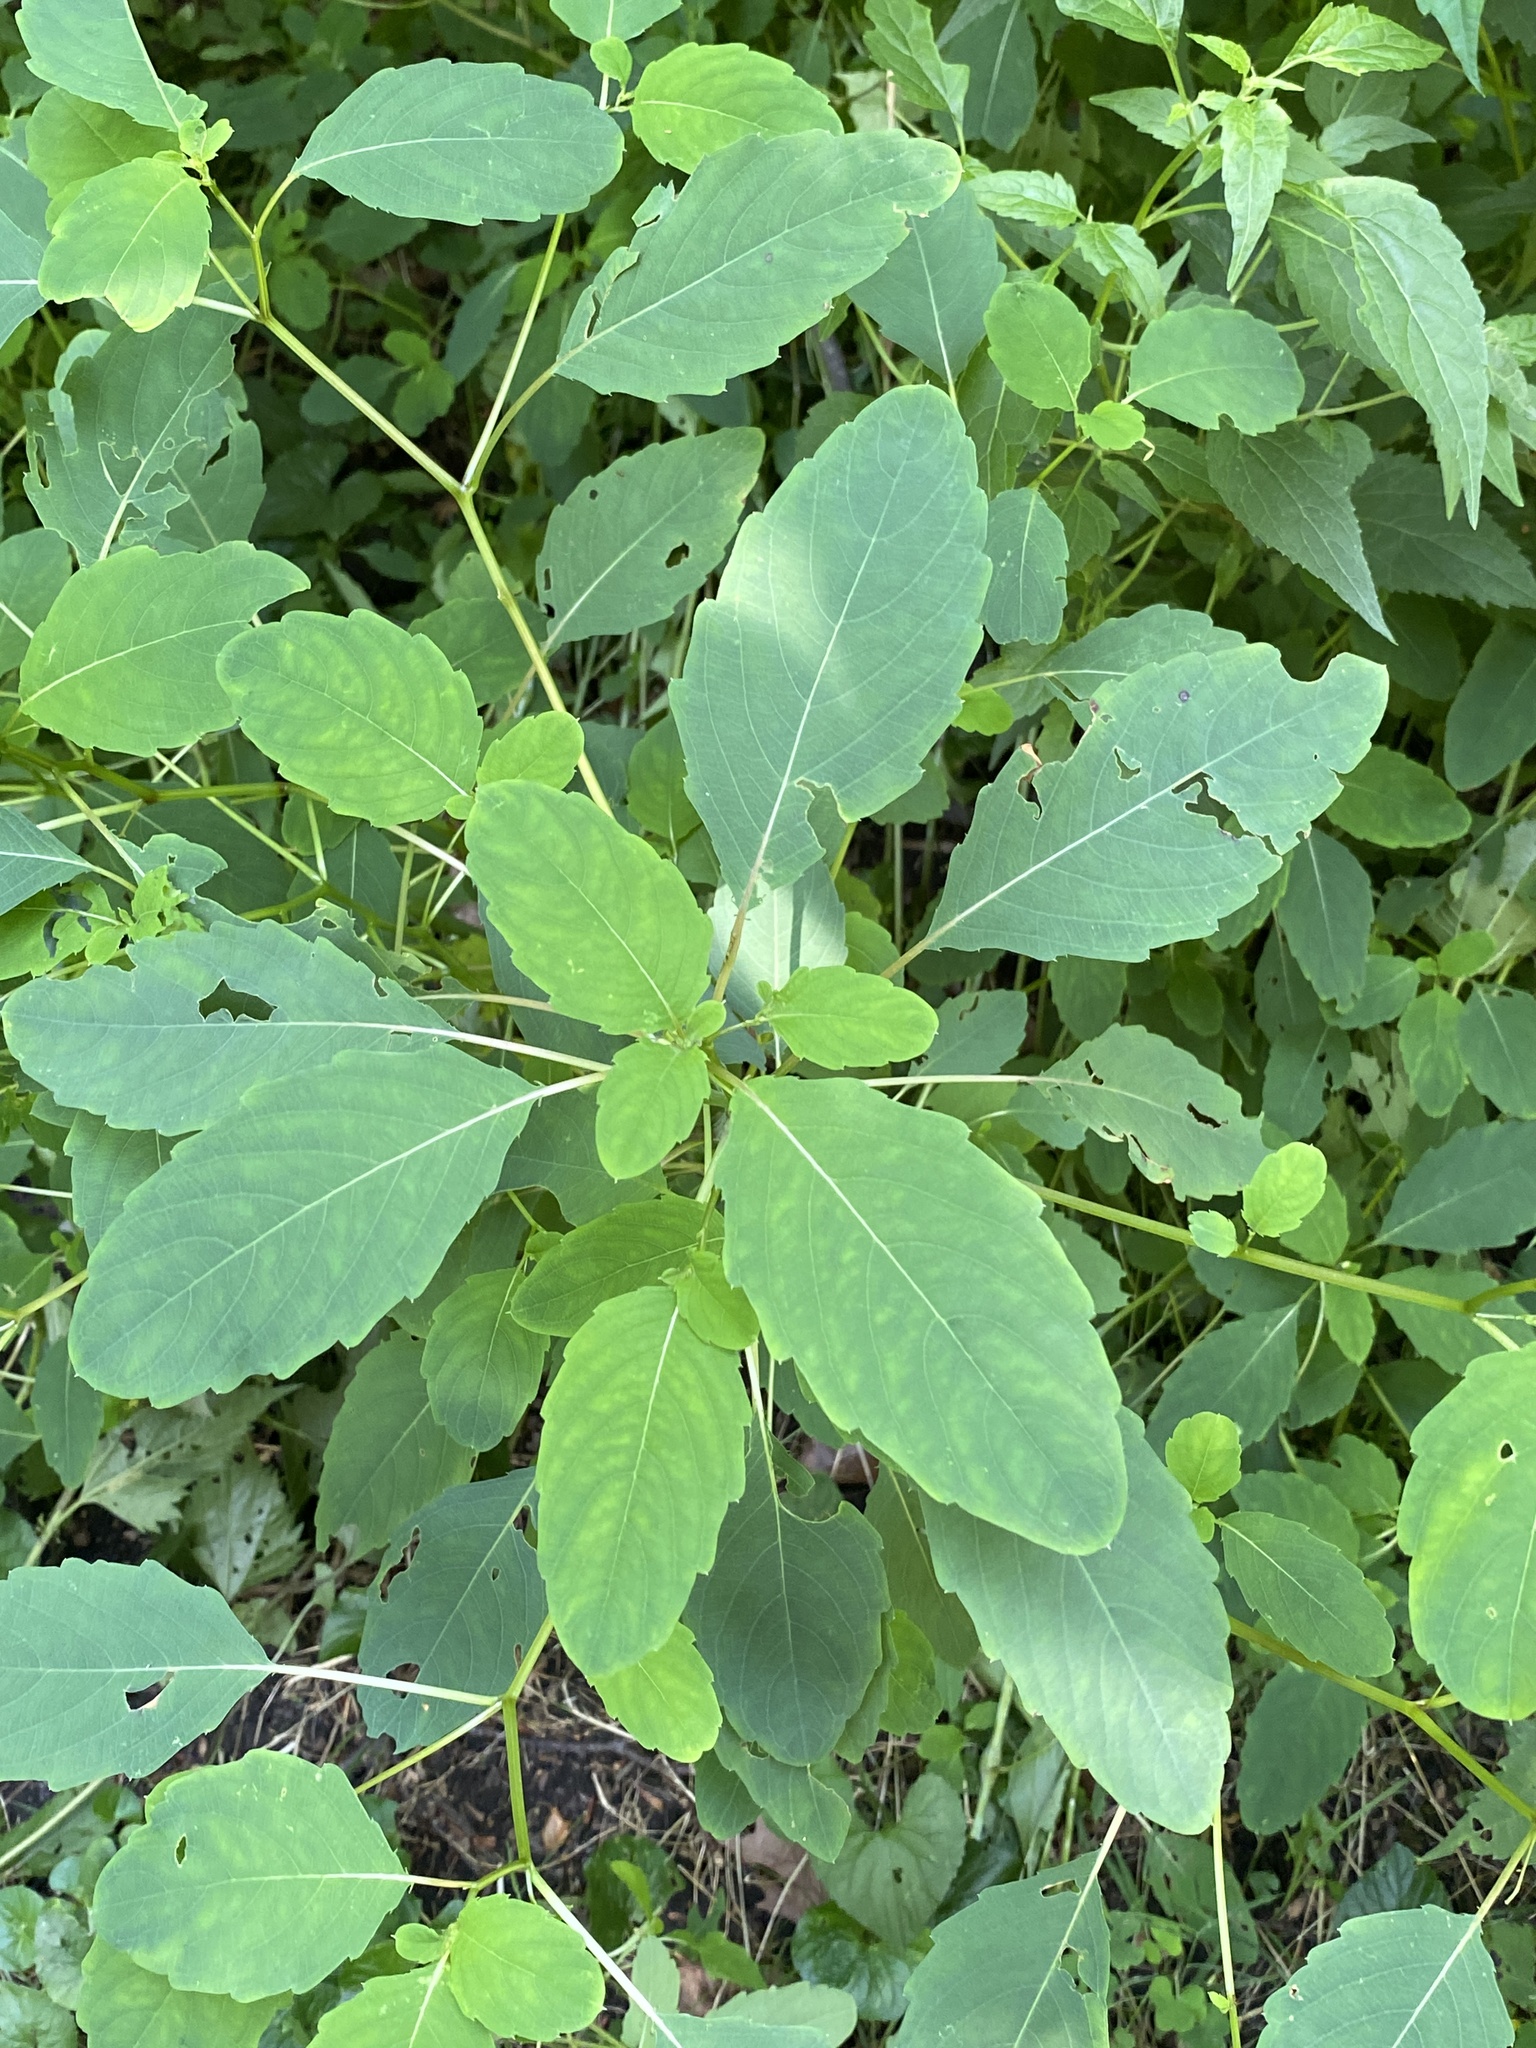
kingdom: Plantae
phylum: Tracheophyta
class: Magnoliopsida
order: Ericales
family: Balsaminaceae
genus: Impatiens
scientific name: Impatiens capensis
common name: Orange balsam
